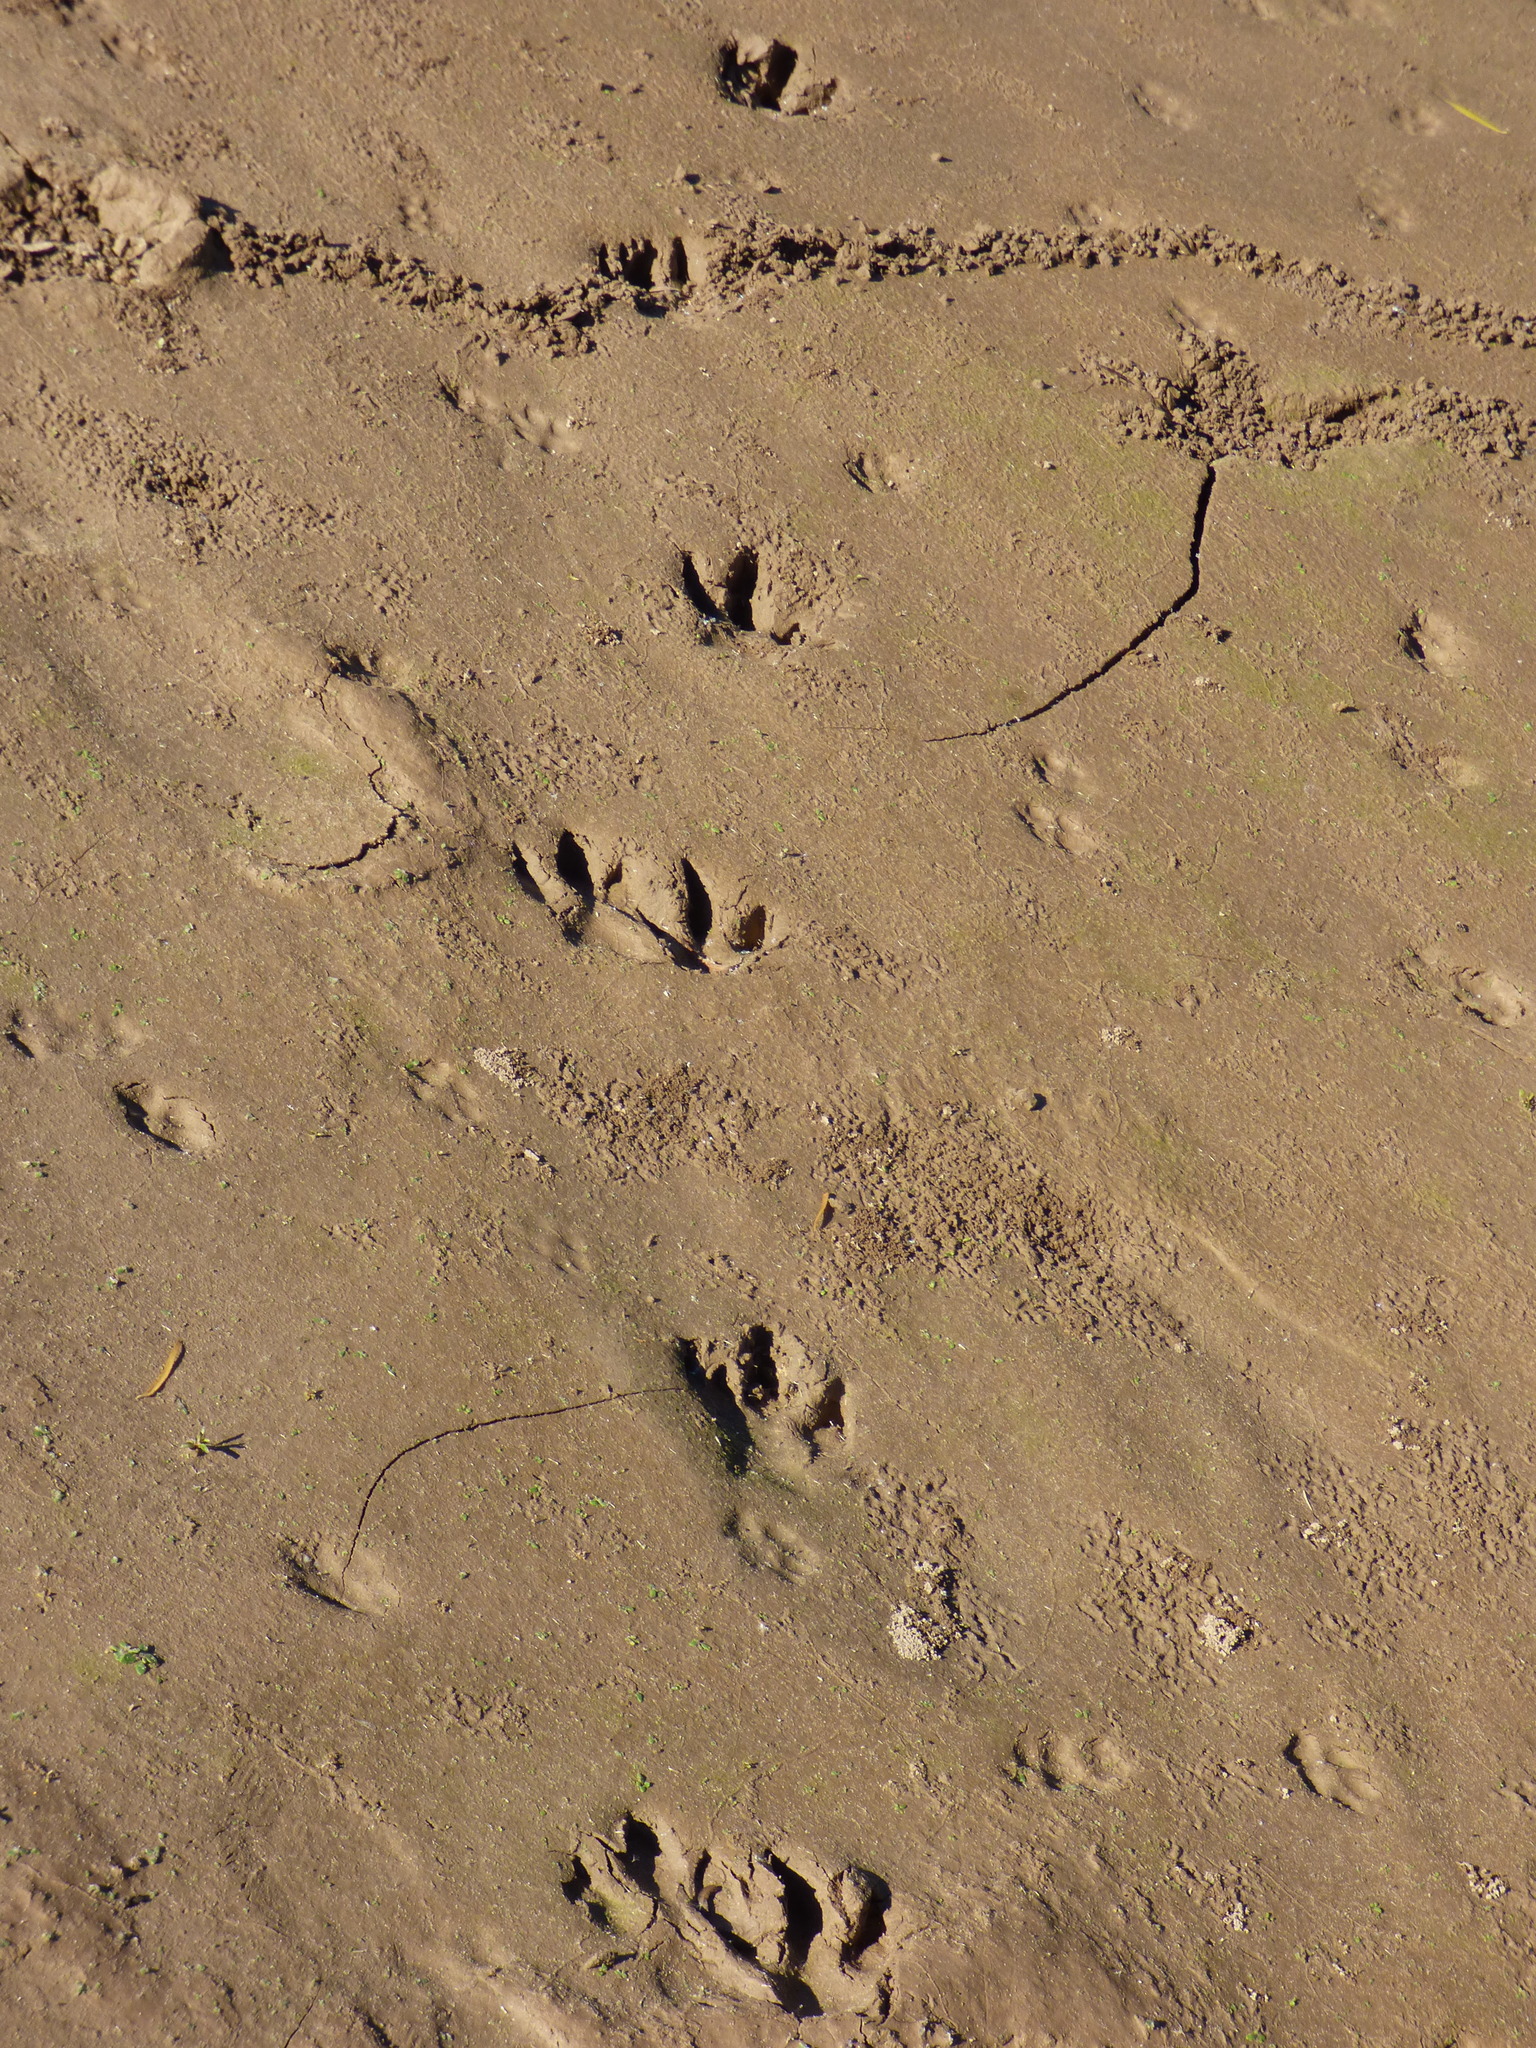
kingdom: Animalia
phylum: Chordata
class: Mammalia
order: Rodentia
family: Caviidae
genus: Hydrochoerus
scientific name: Hydrochoerus hydrochaeris
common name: Capybara
